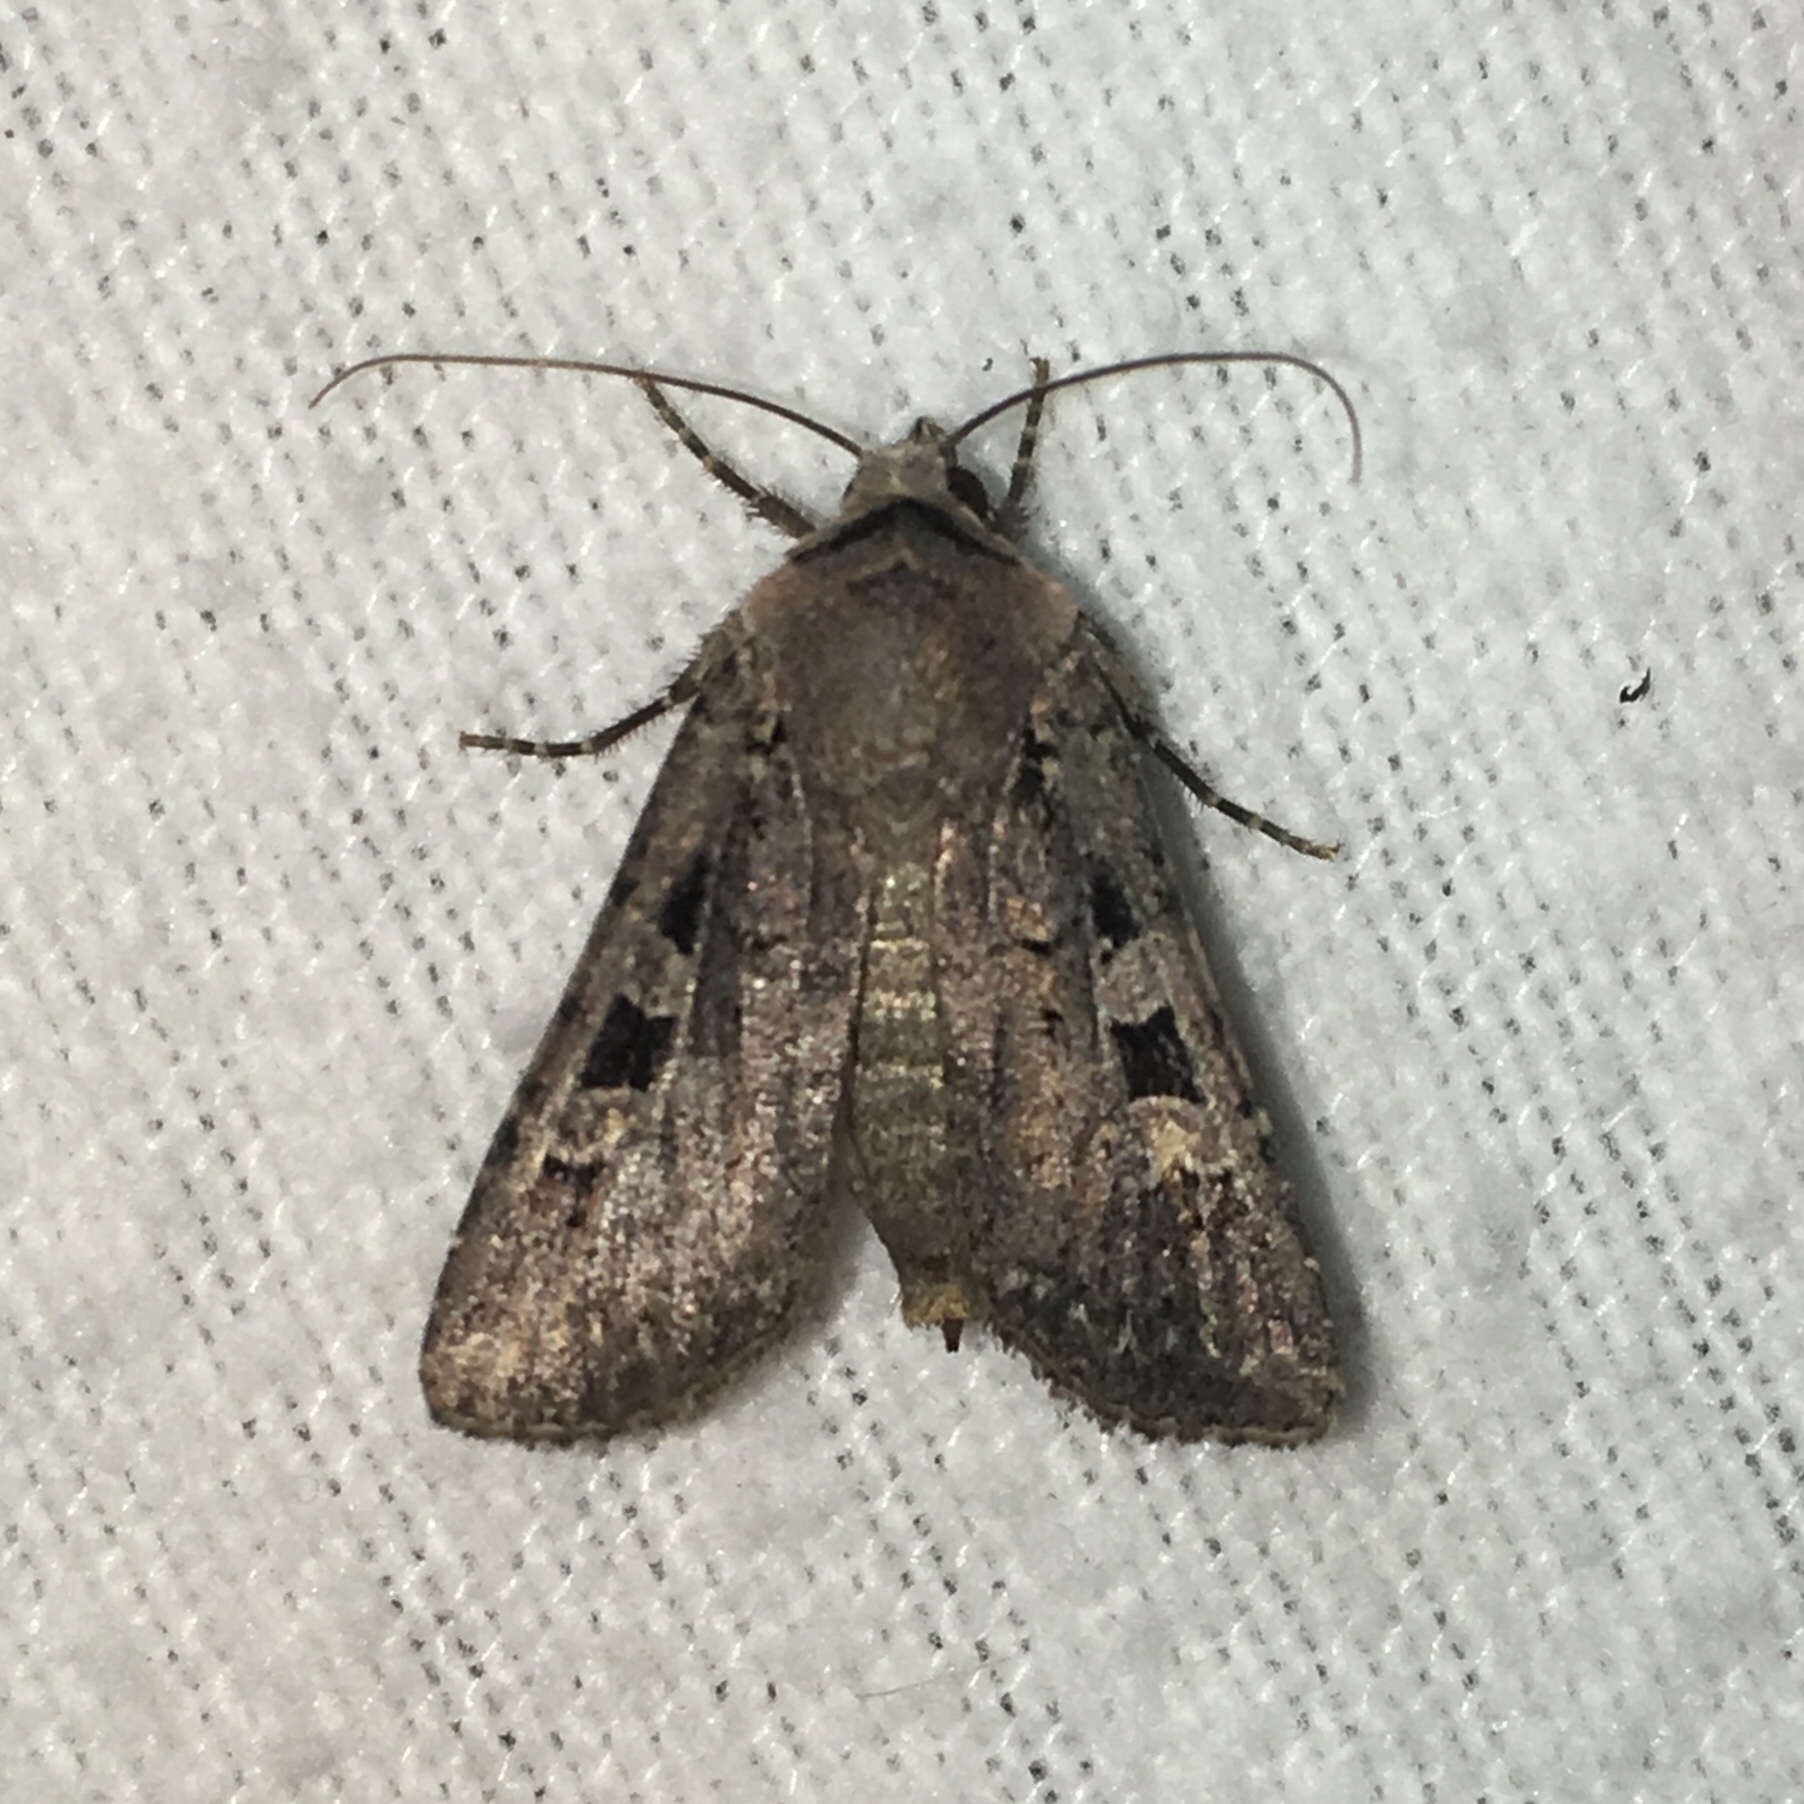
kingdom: Animalia
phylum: Arthropoda
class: Insecta
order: Lepidoptera
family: Noctuidae
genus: Euxoa
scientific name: Euxoa tessellata
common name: Striped cutworm
